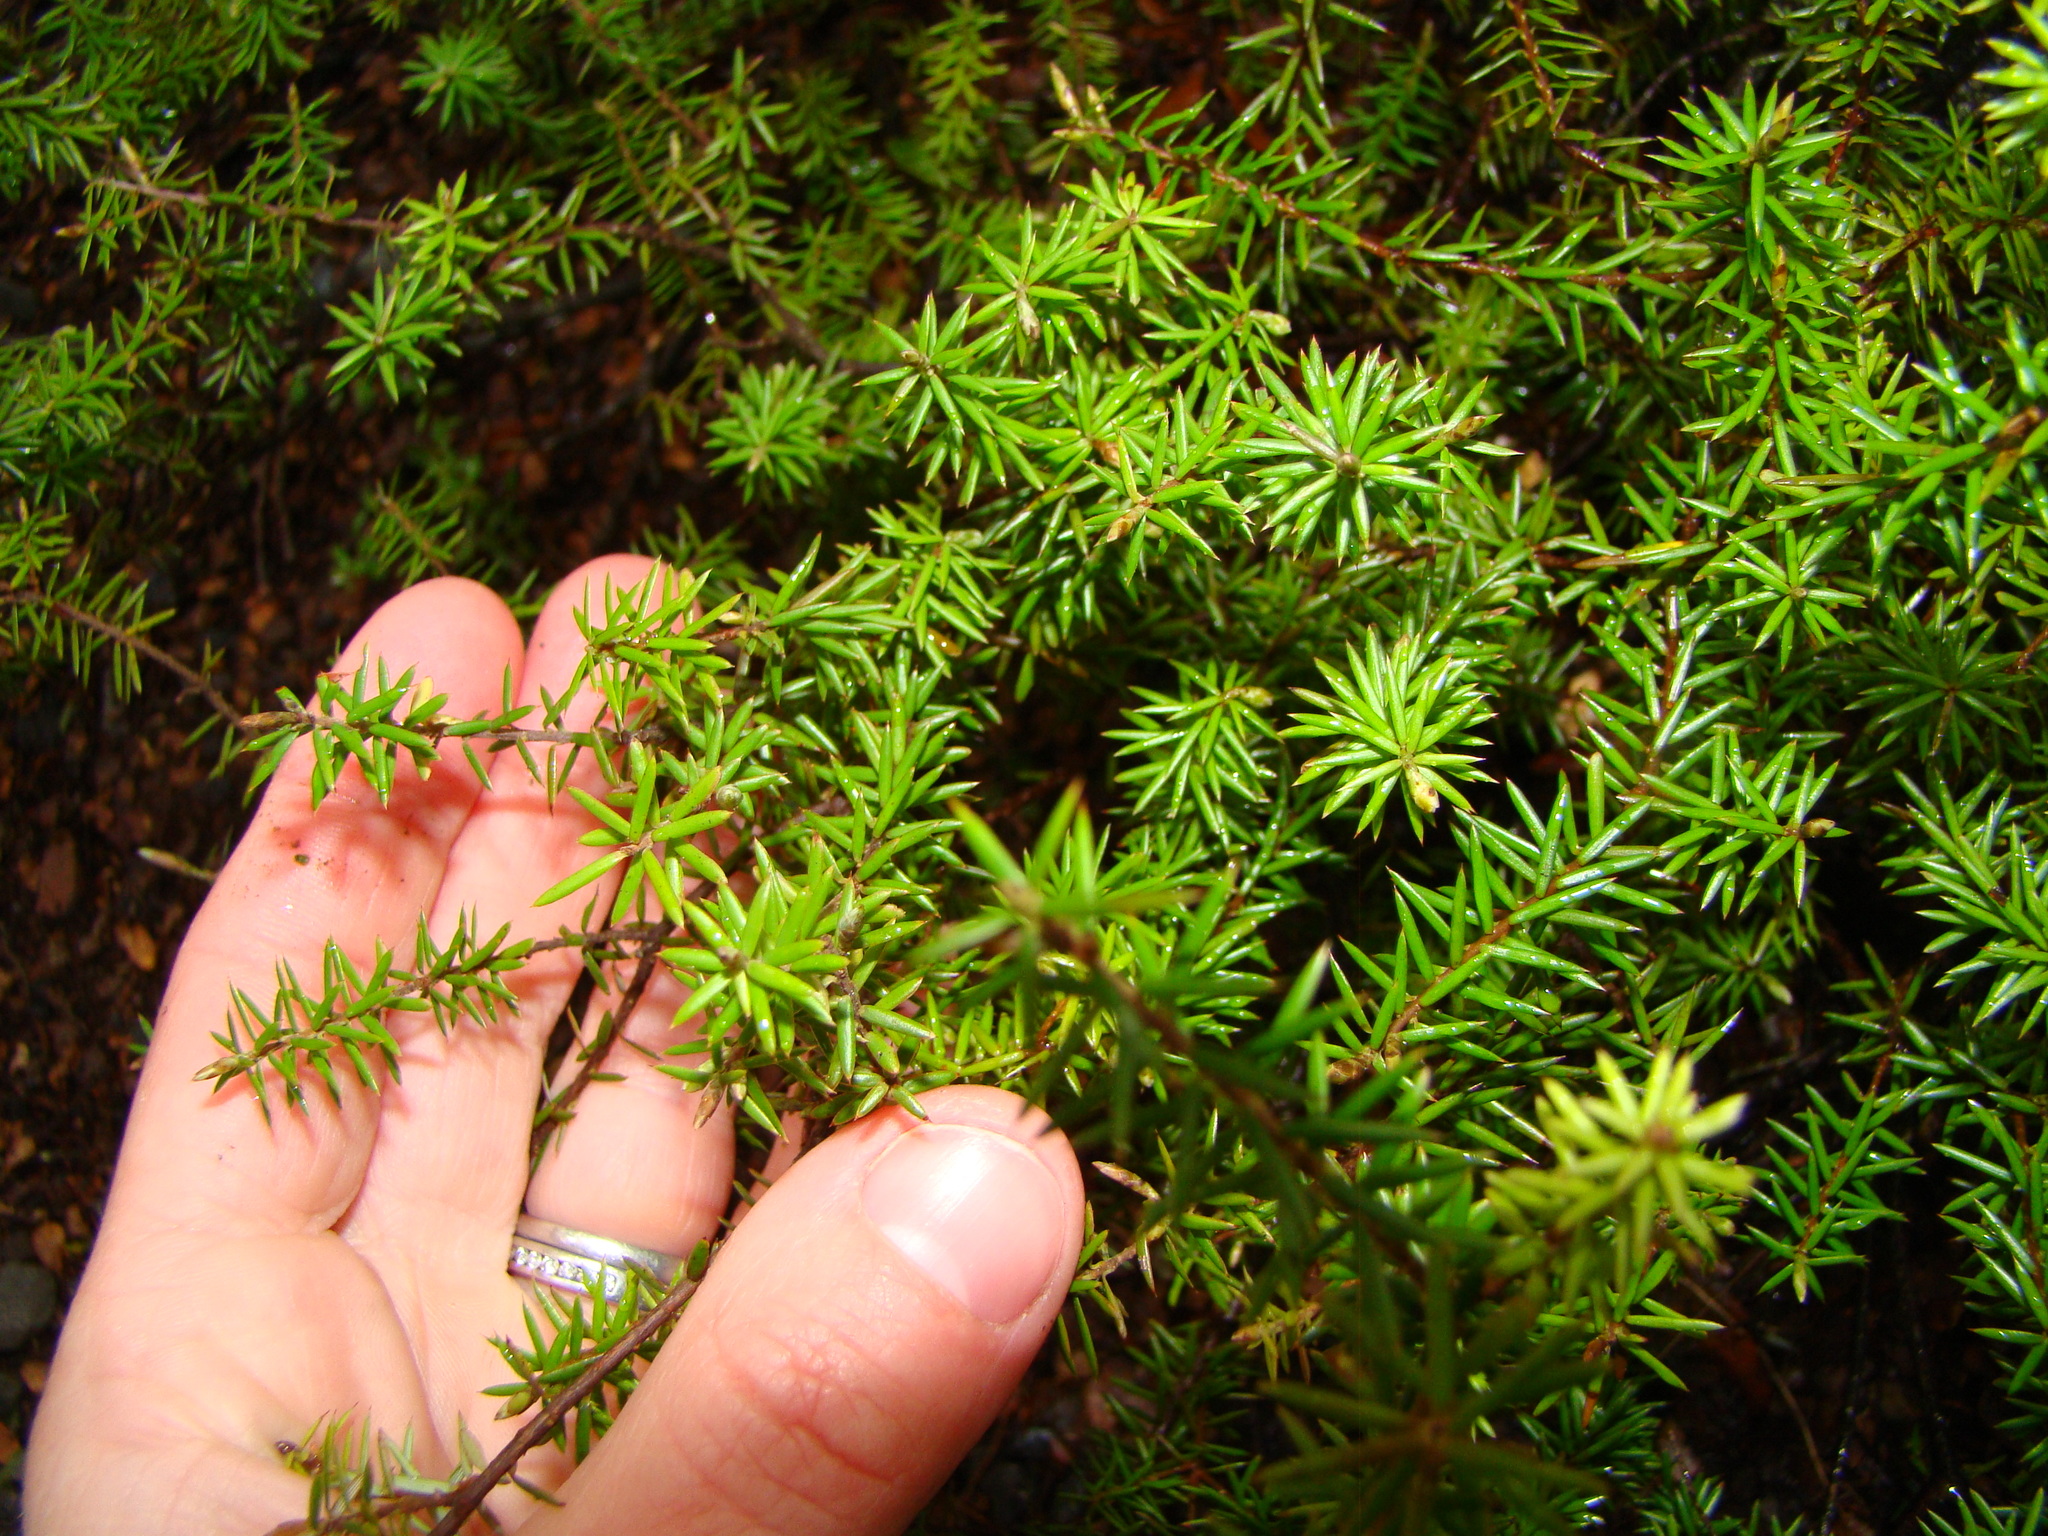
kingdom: Plantae
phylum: Tracheophyta
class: Magnoliopsida
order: Ericales
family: Ericaceae
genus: Leptecophylla
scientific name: Leptecophylla juniperina
